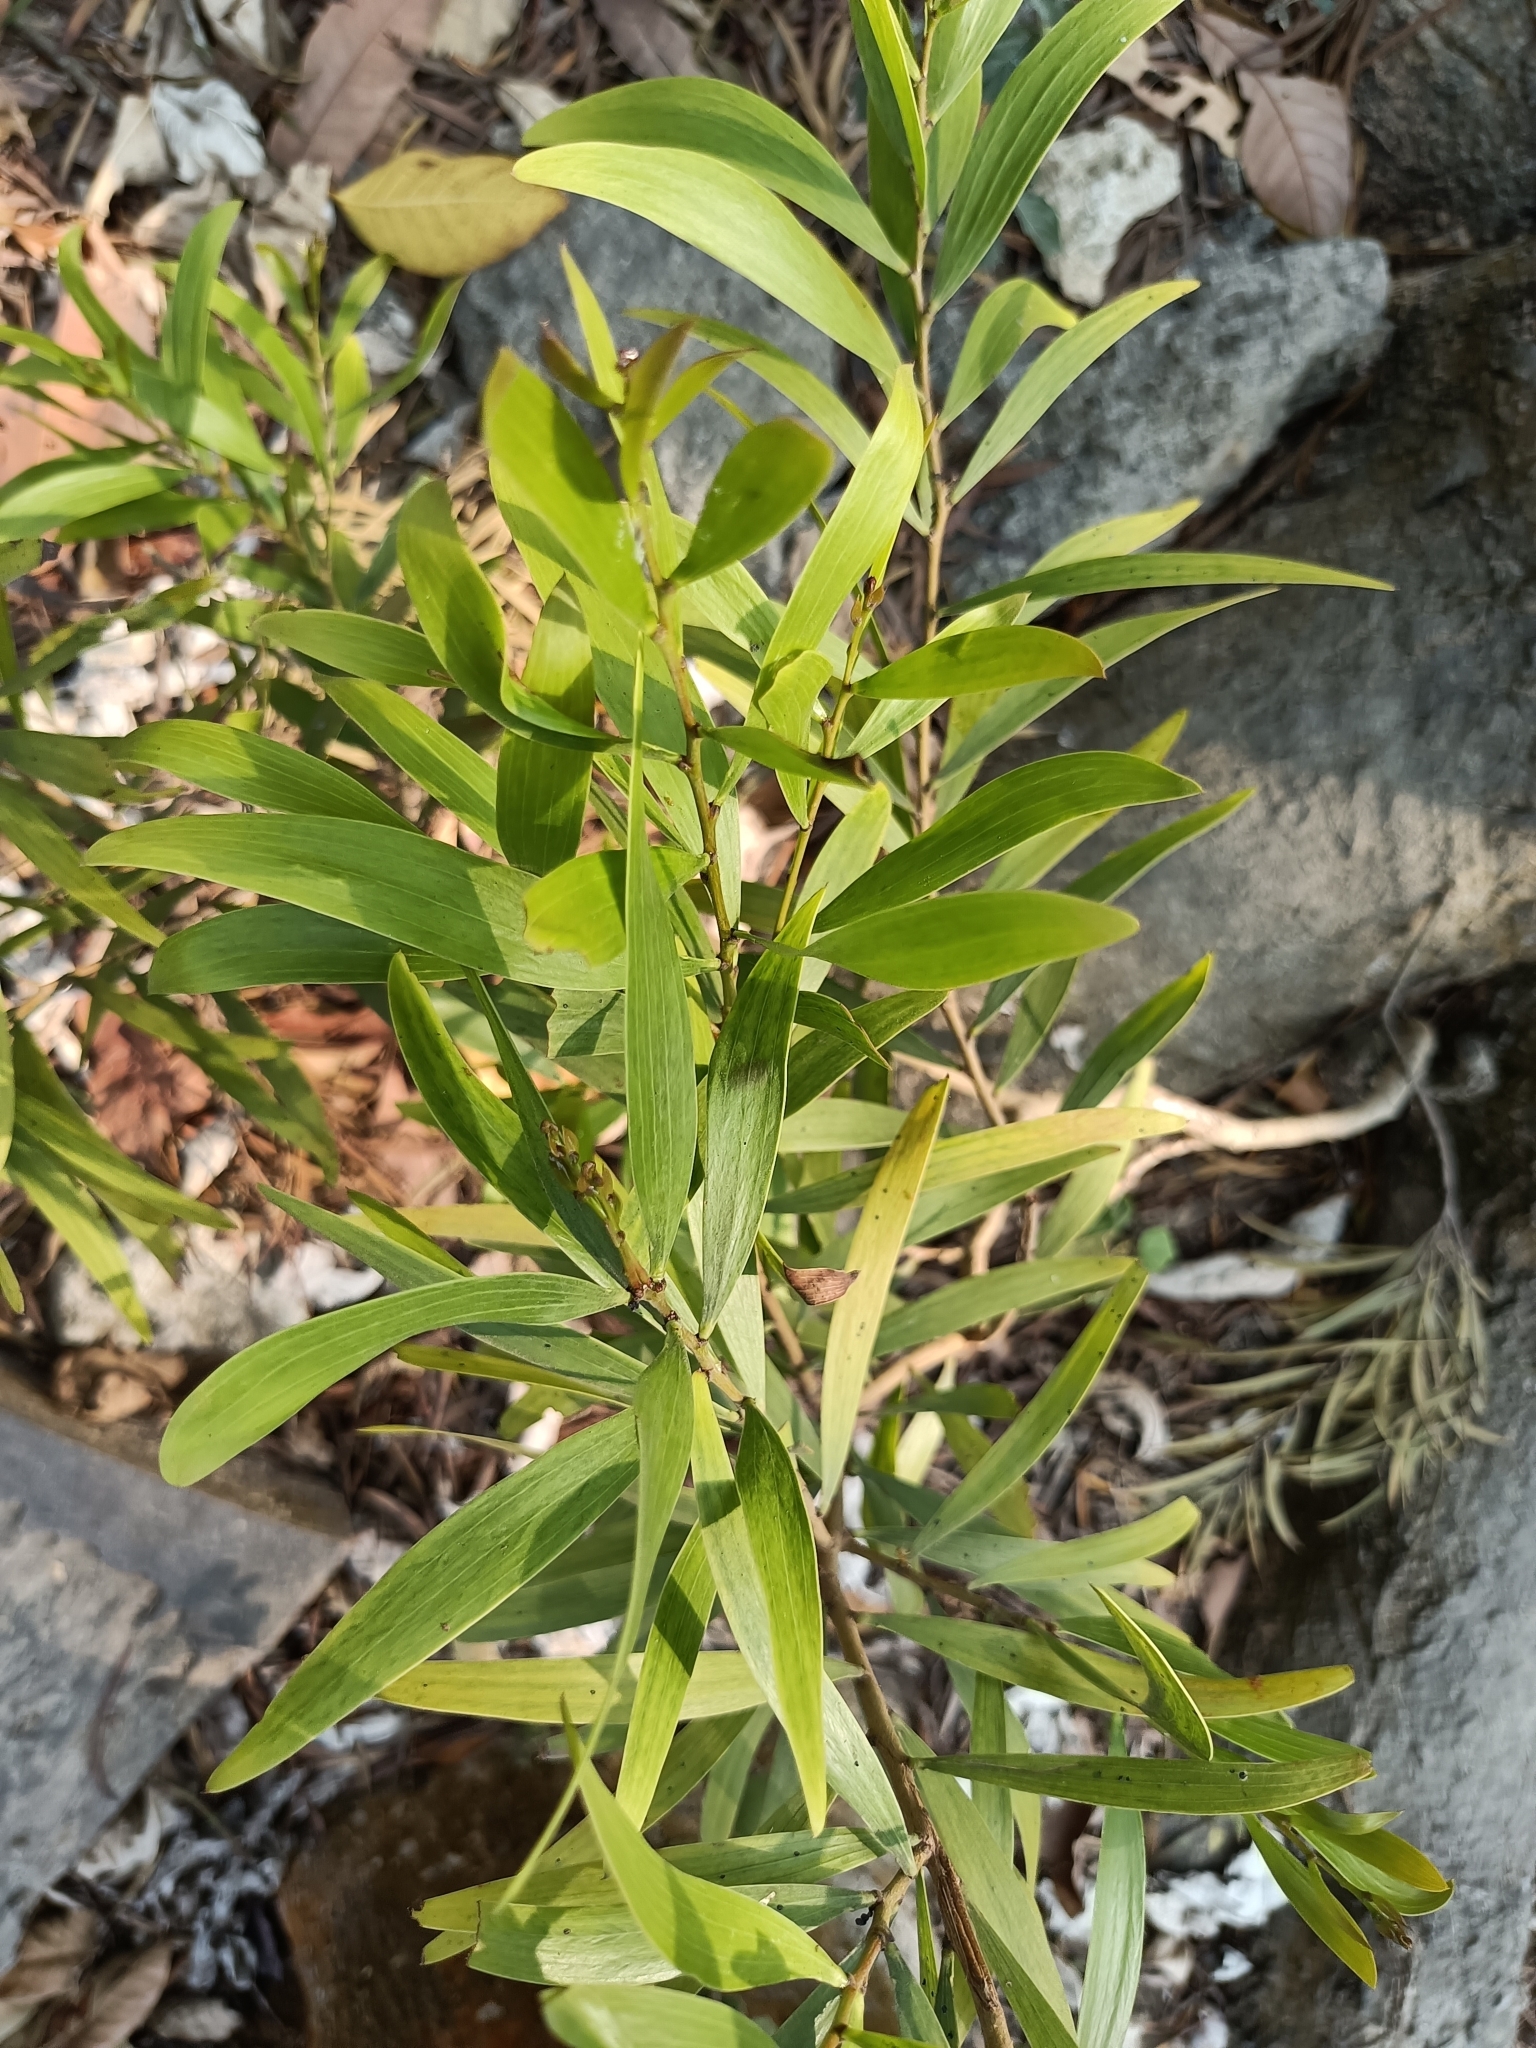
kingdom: Plantae
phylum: Tracheophyta
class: Magnoliopsida
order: Fabales
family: Fabaceae
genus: Acacia
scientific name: Acacia confusa
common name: Formosan koa
